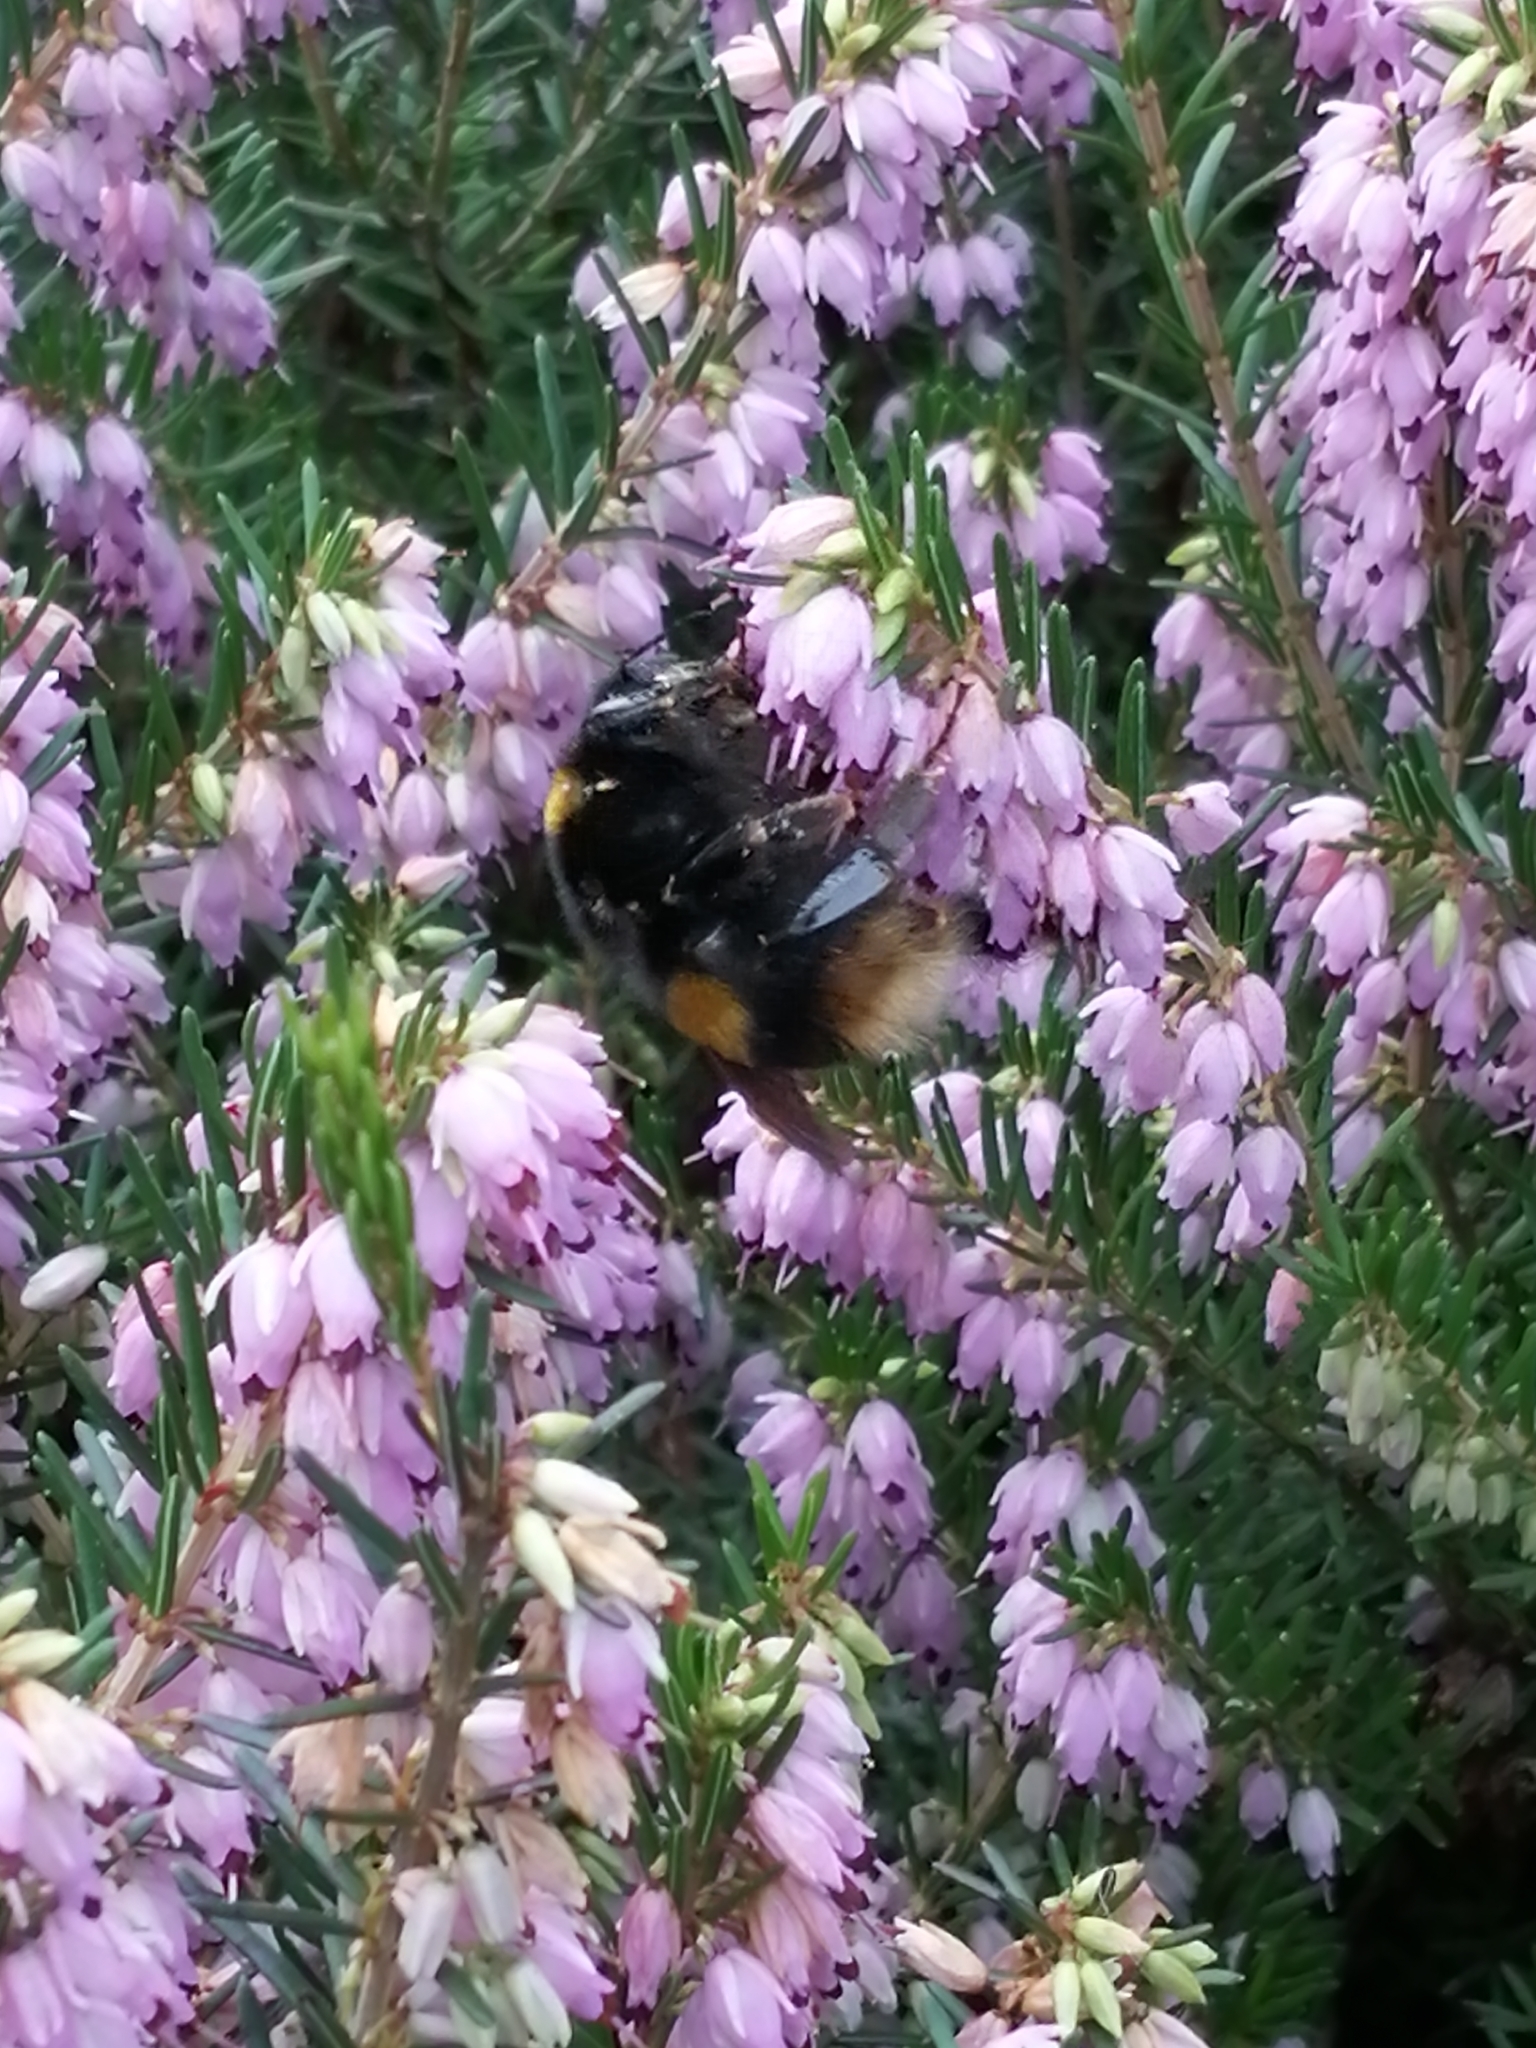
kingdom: Animalia
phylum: Arthropoda
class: Insecta
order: Hymenoptera
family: Apidae
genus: Bombus
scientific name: Bombus terrestris
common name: Buff-tailed bumblebee
